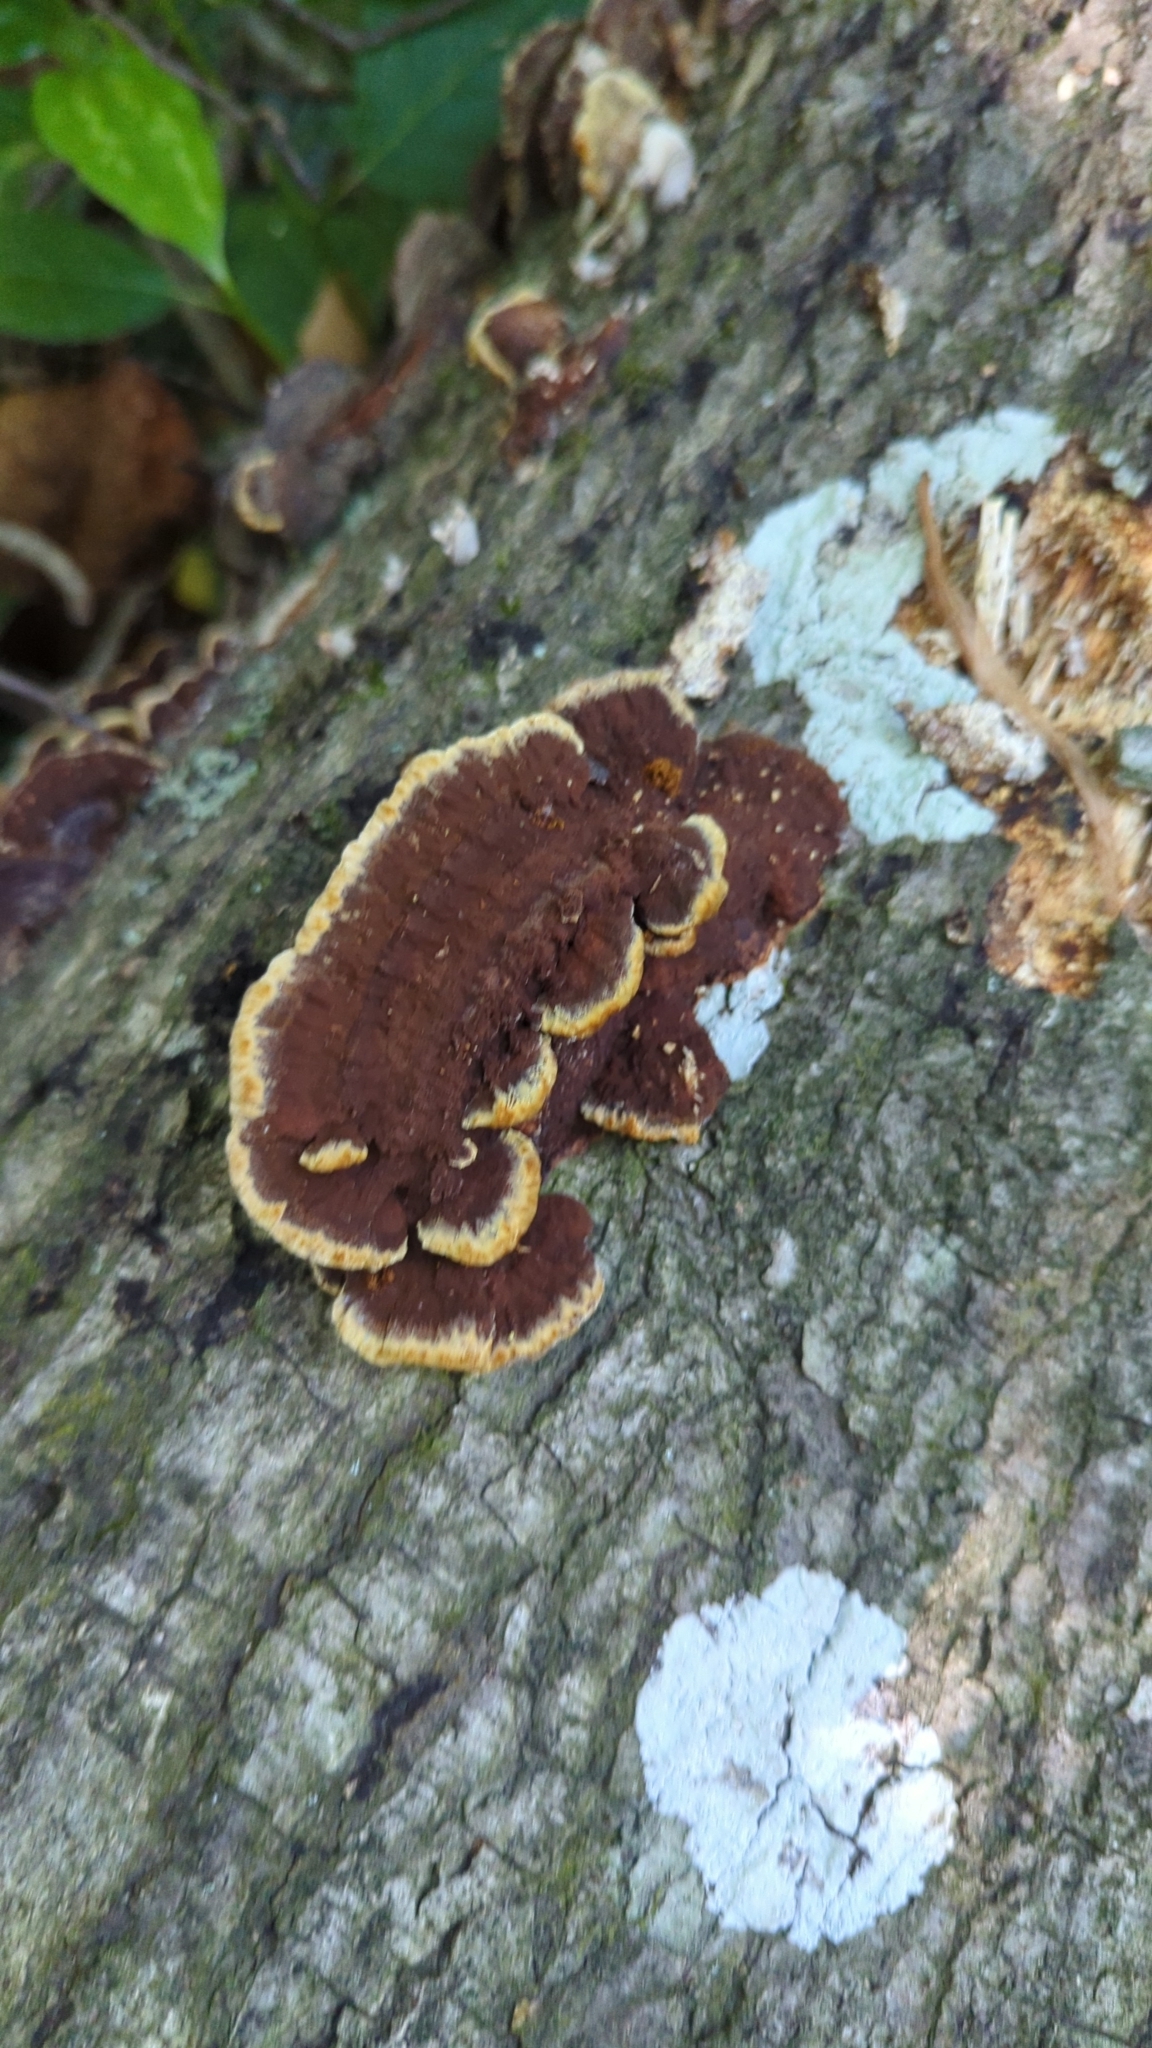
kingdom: Fungi
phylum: Basidiomycota
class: Agaricomycetes
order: Hymenochaetales
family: Hymenochaetaceae
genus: Phellinus
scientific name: Phellinus gilvus
